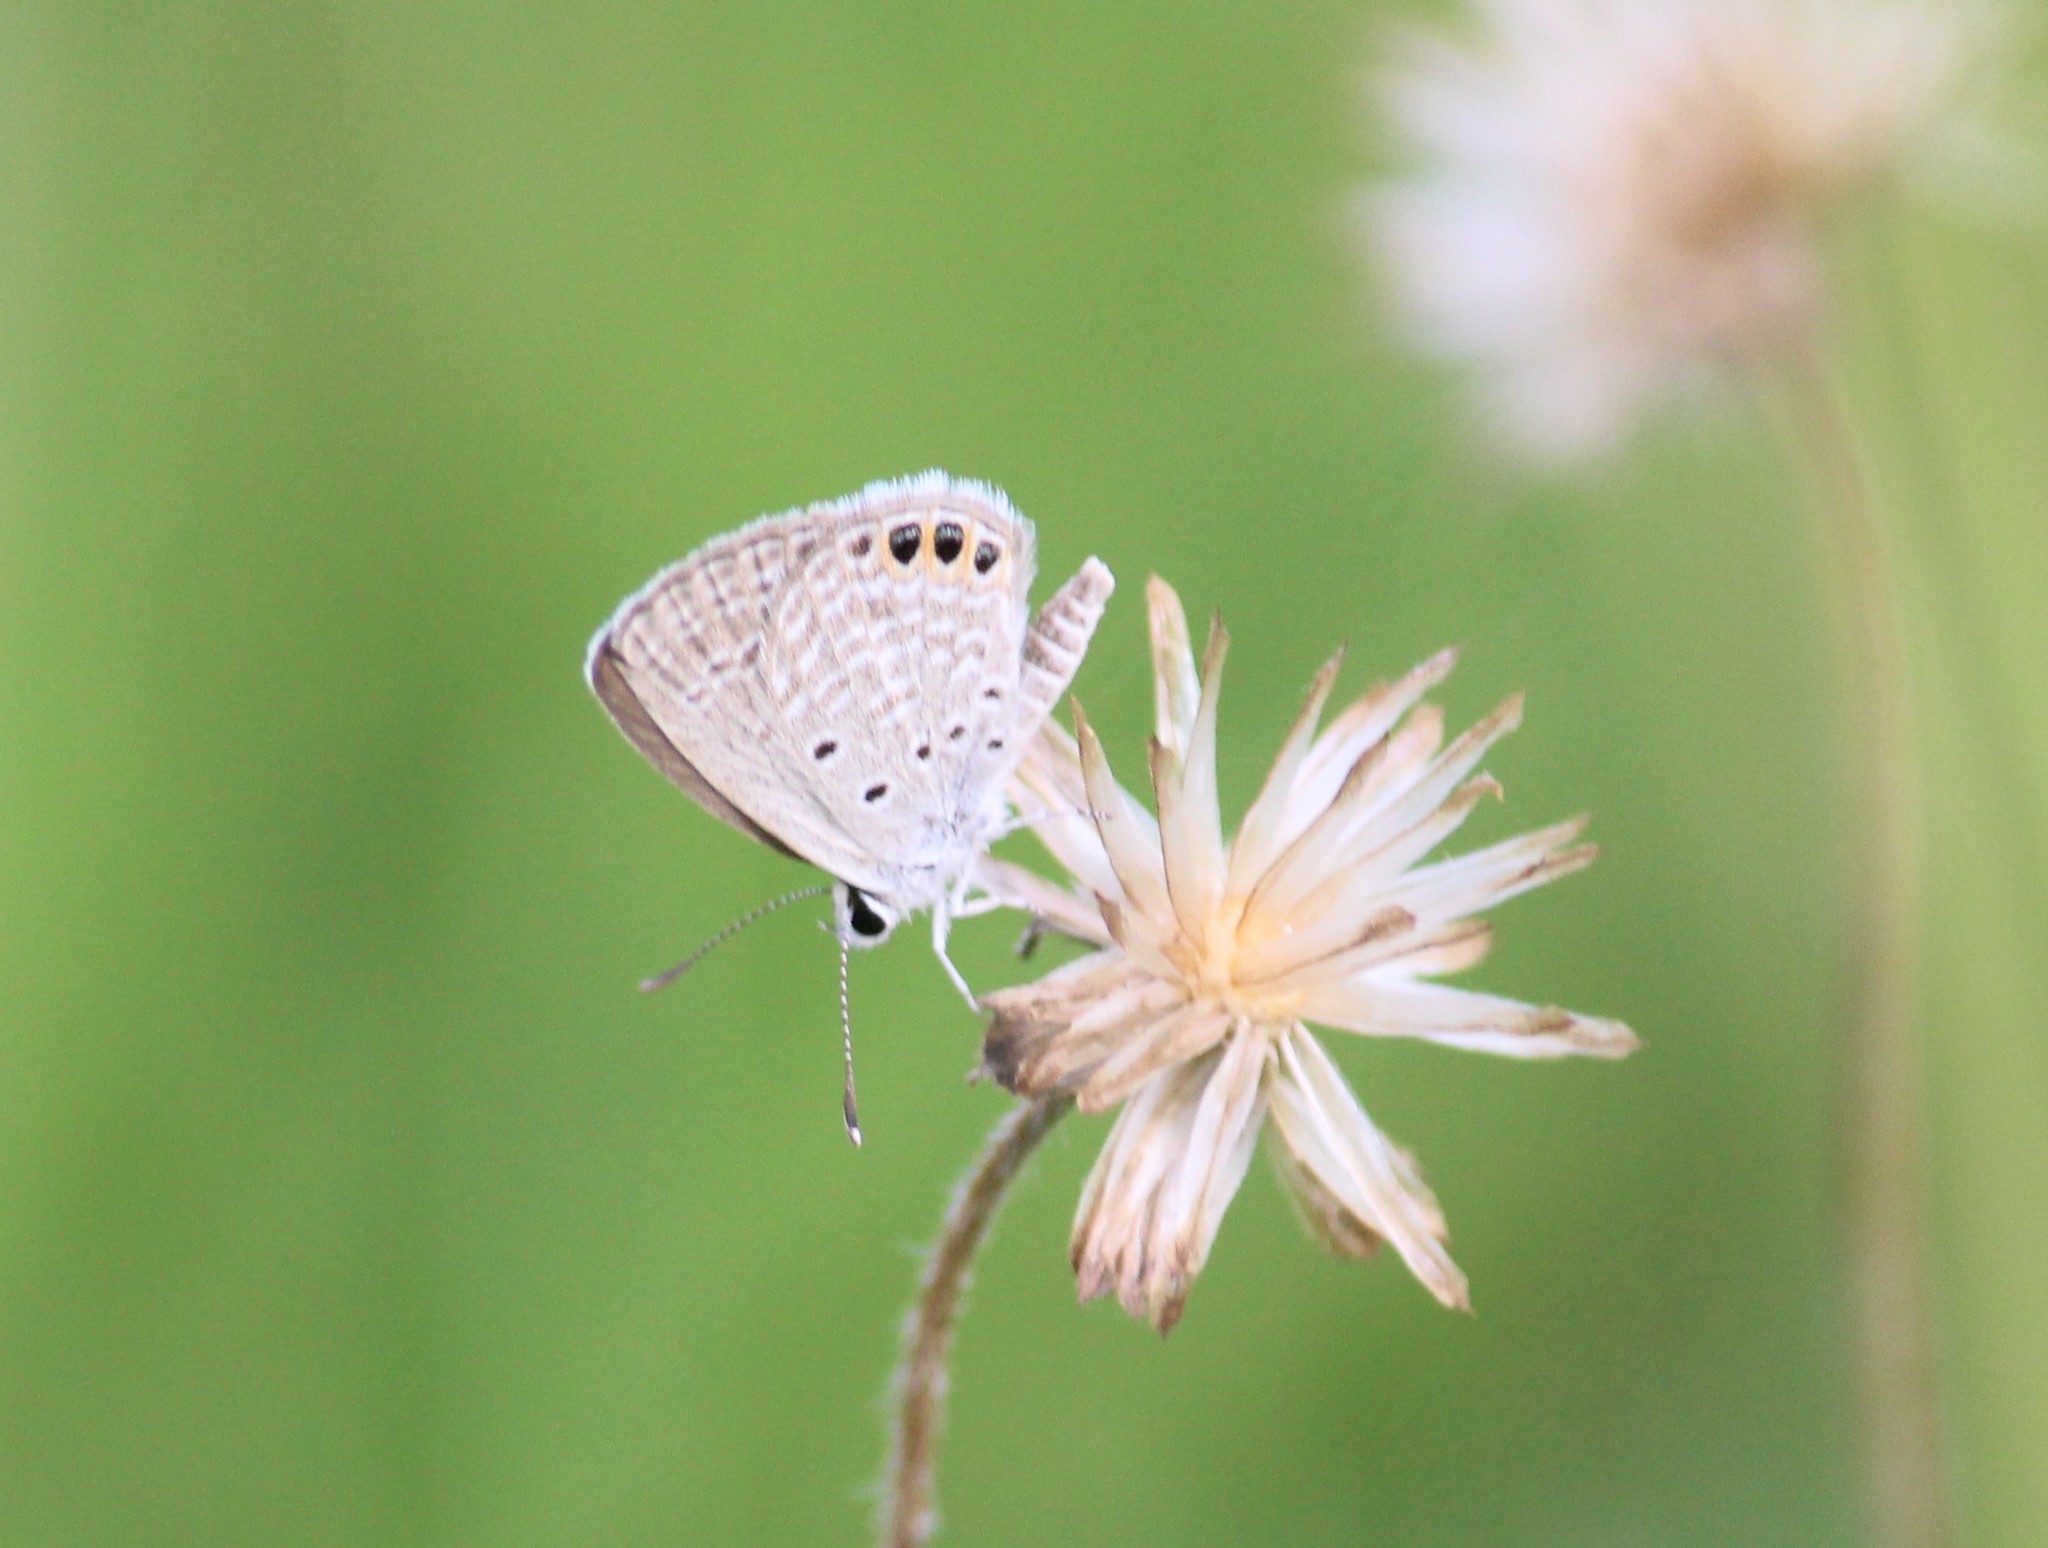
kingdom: Animalia
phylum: Arthropoda
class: Insecta
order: Lepidoptera
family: Lycaenidae
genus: Freyeria
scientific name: Freyeria trochylus
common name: Grass jewel
